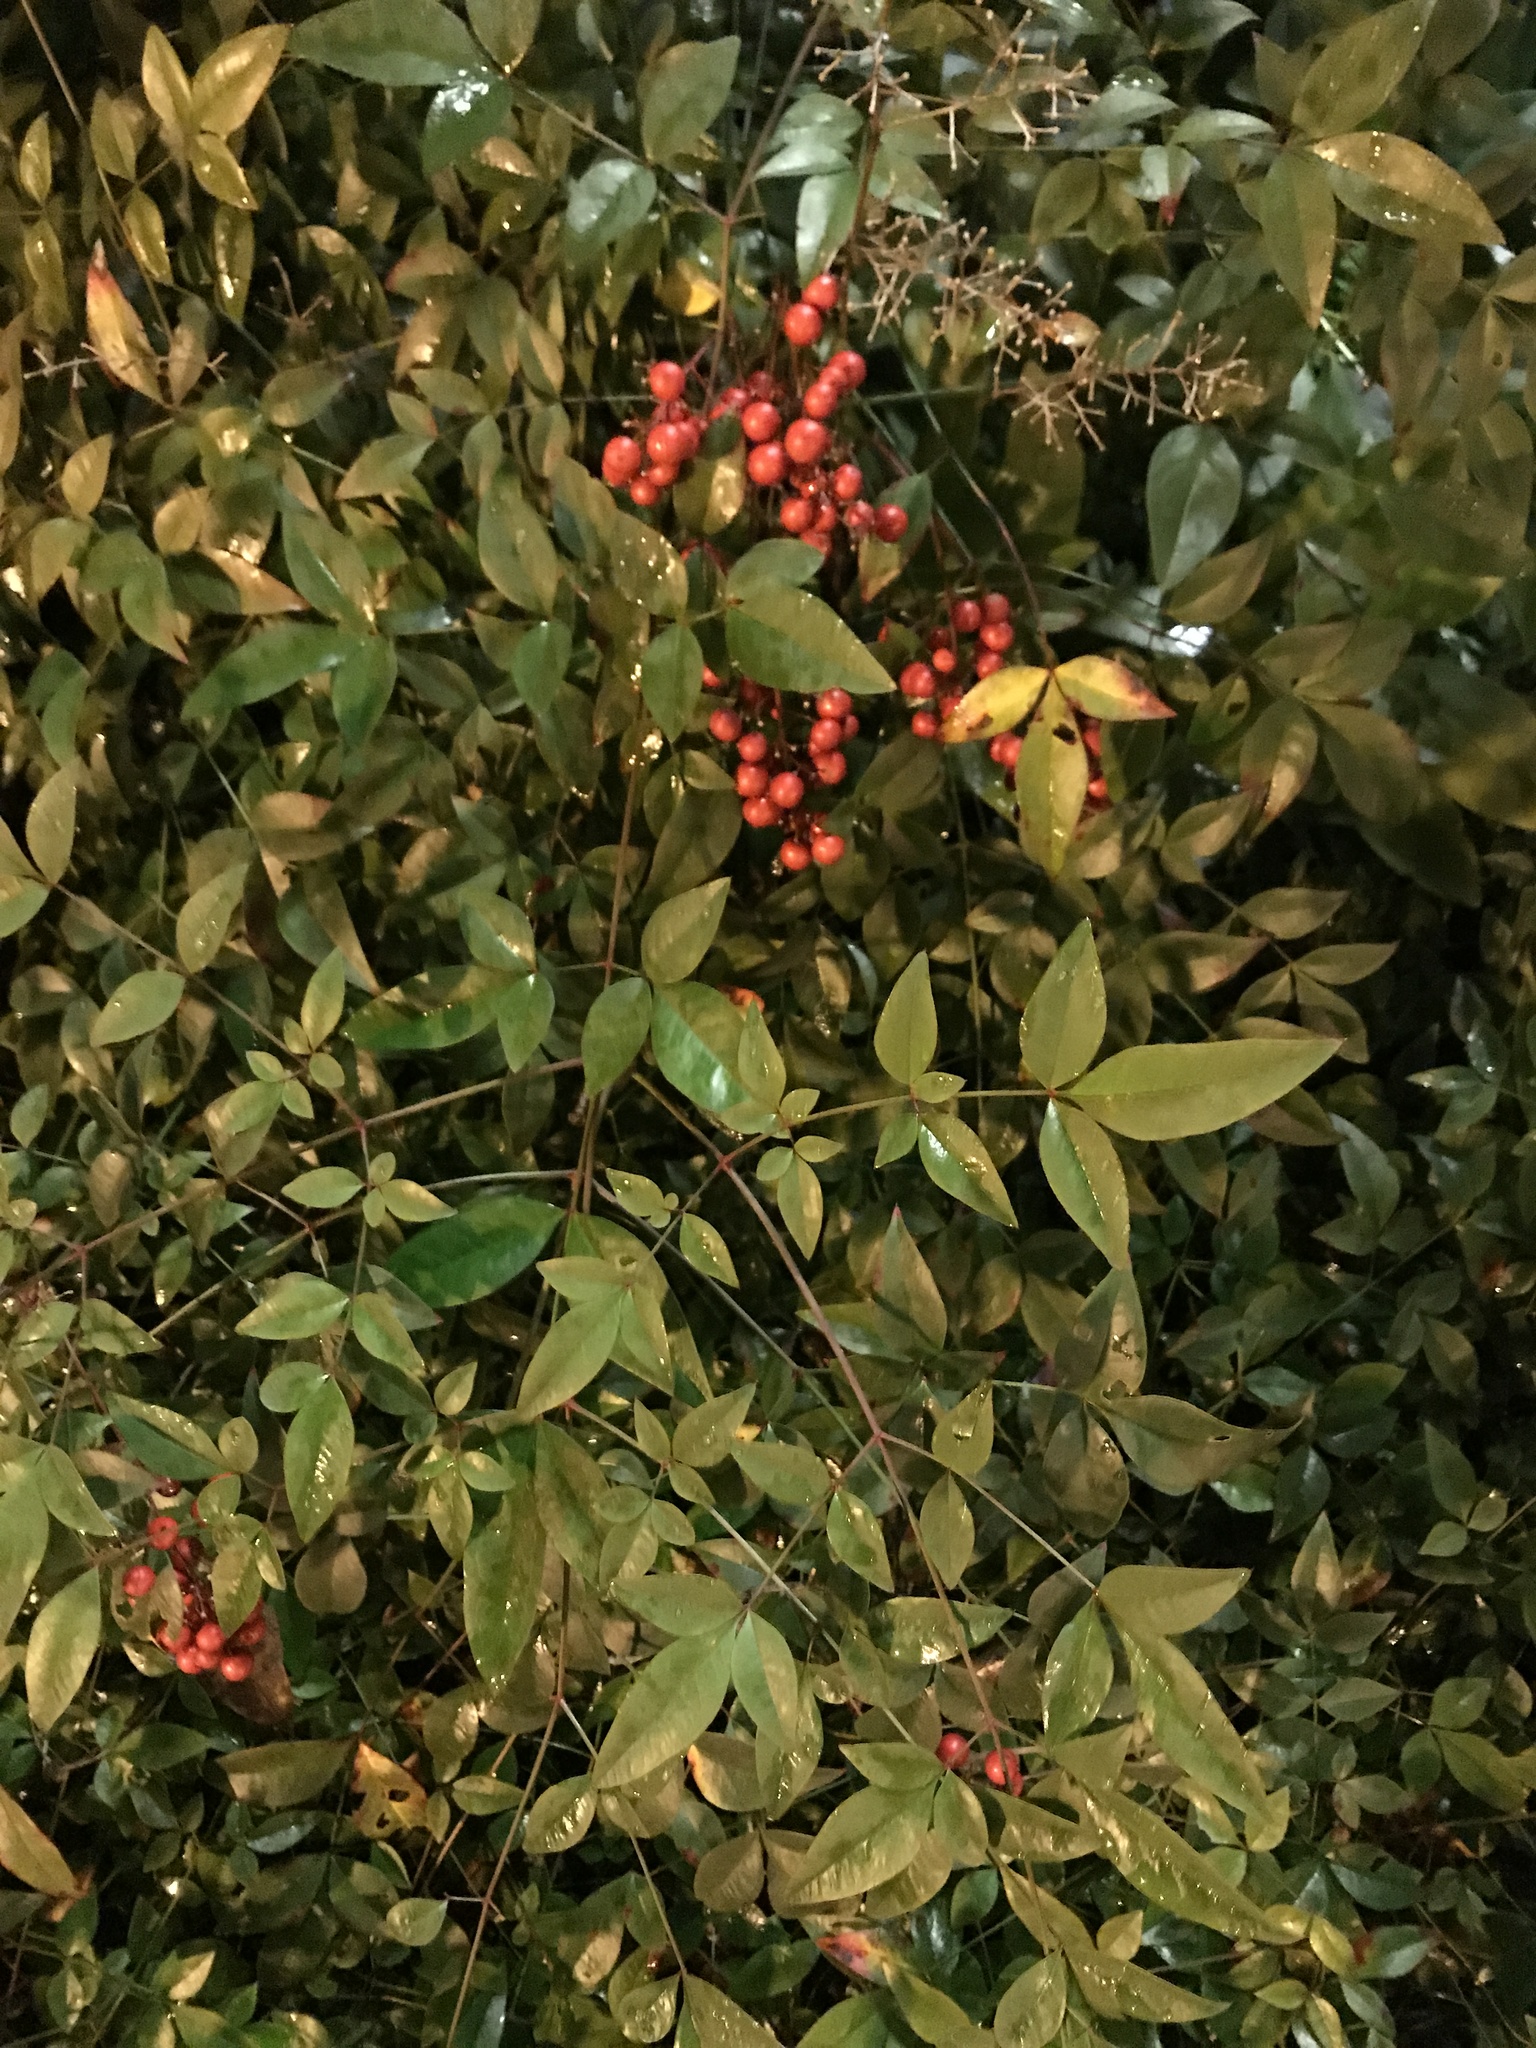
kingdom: Plantae
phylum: Tracheophyta
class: Magnoliopsida
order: Ranunculales
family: Berberidaceae
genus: Nandina
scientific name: Nandina domestica
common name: Sacred bamboo
